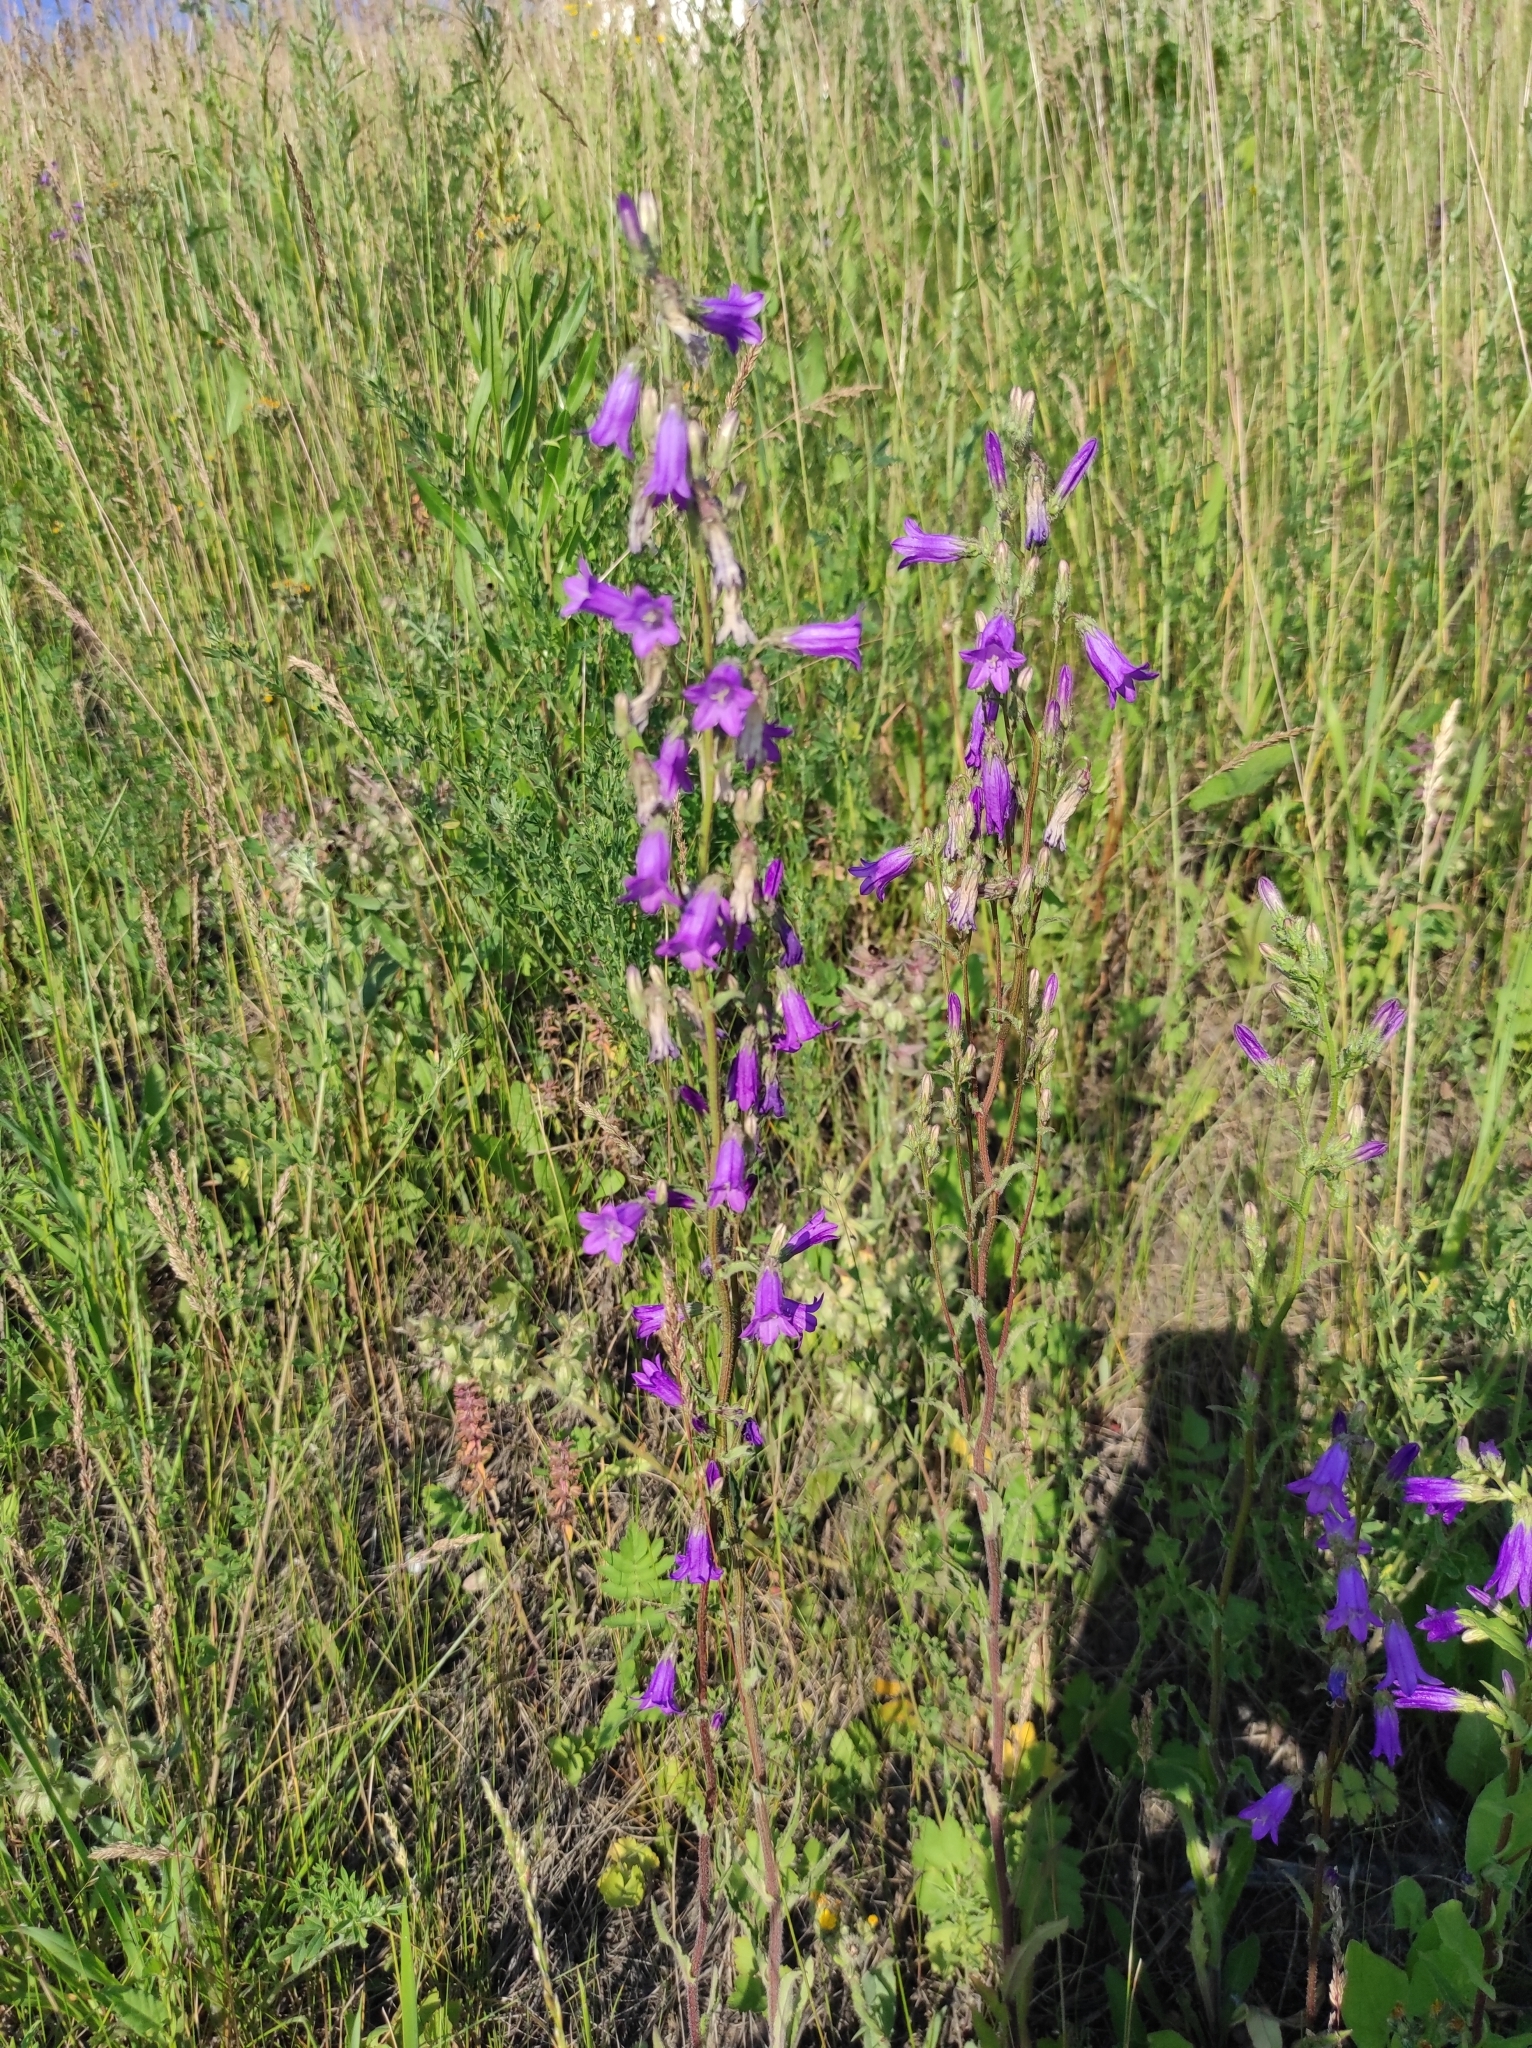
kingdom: Plantae
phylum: Tracheophyta
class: Magnoliopsida
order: Asterales
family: Campanulaceae
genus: Campanula
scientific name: Campanula sibirica
